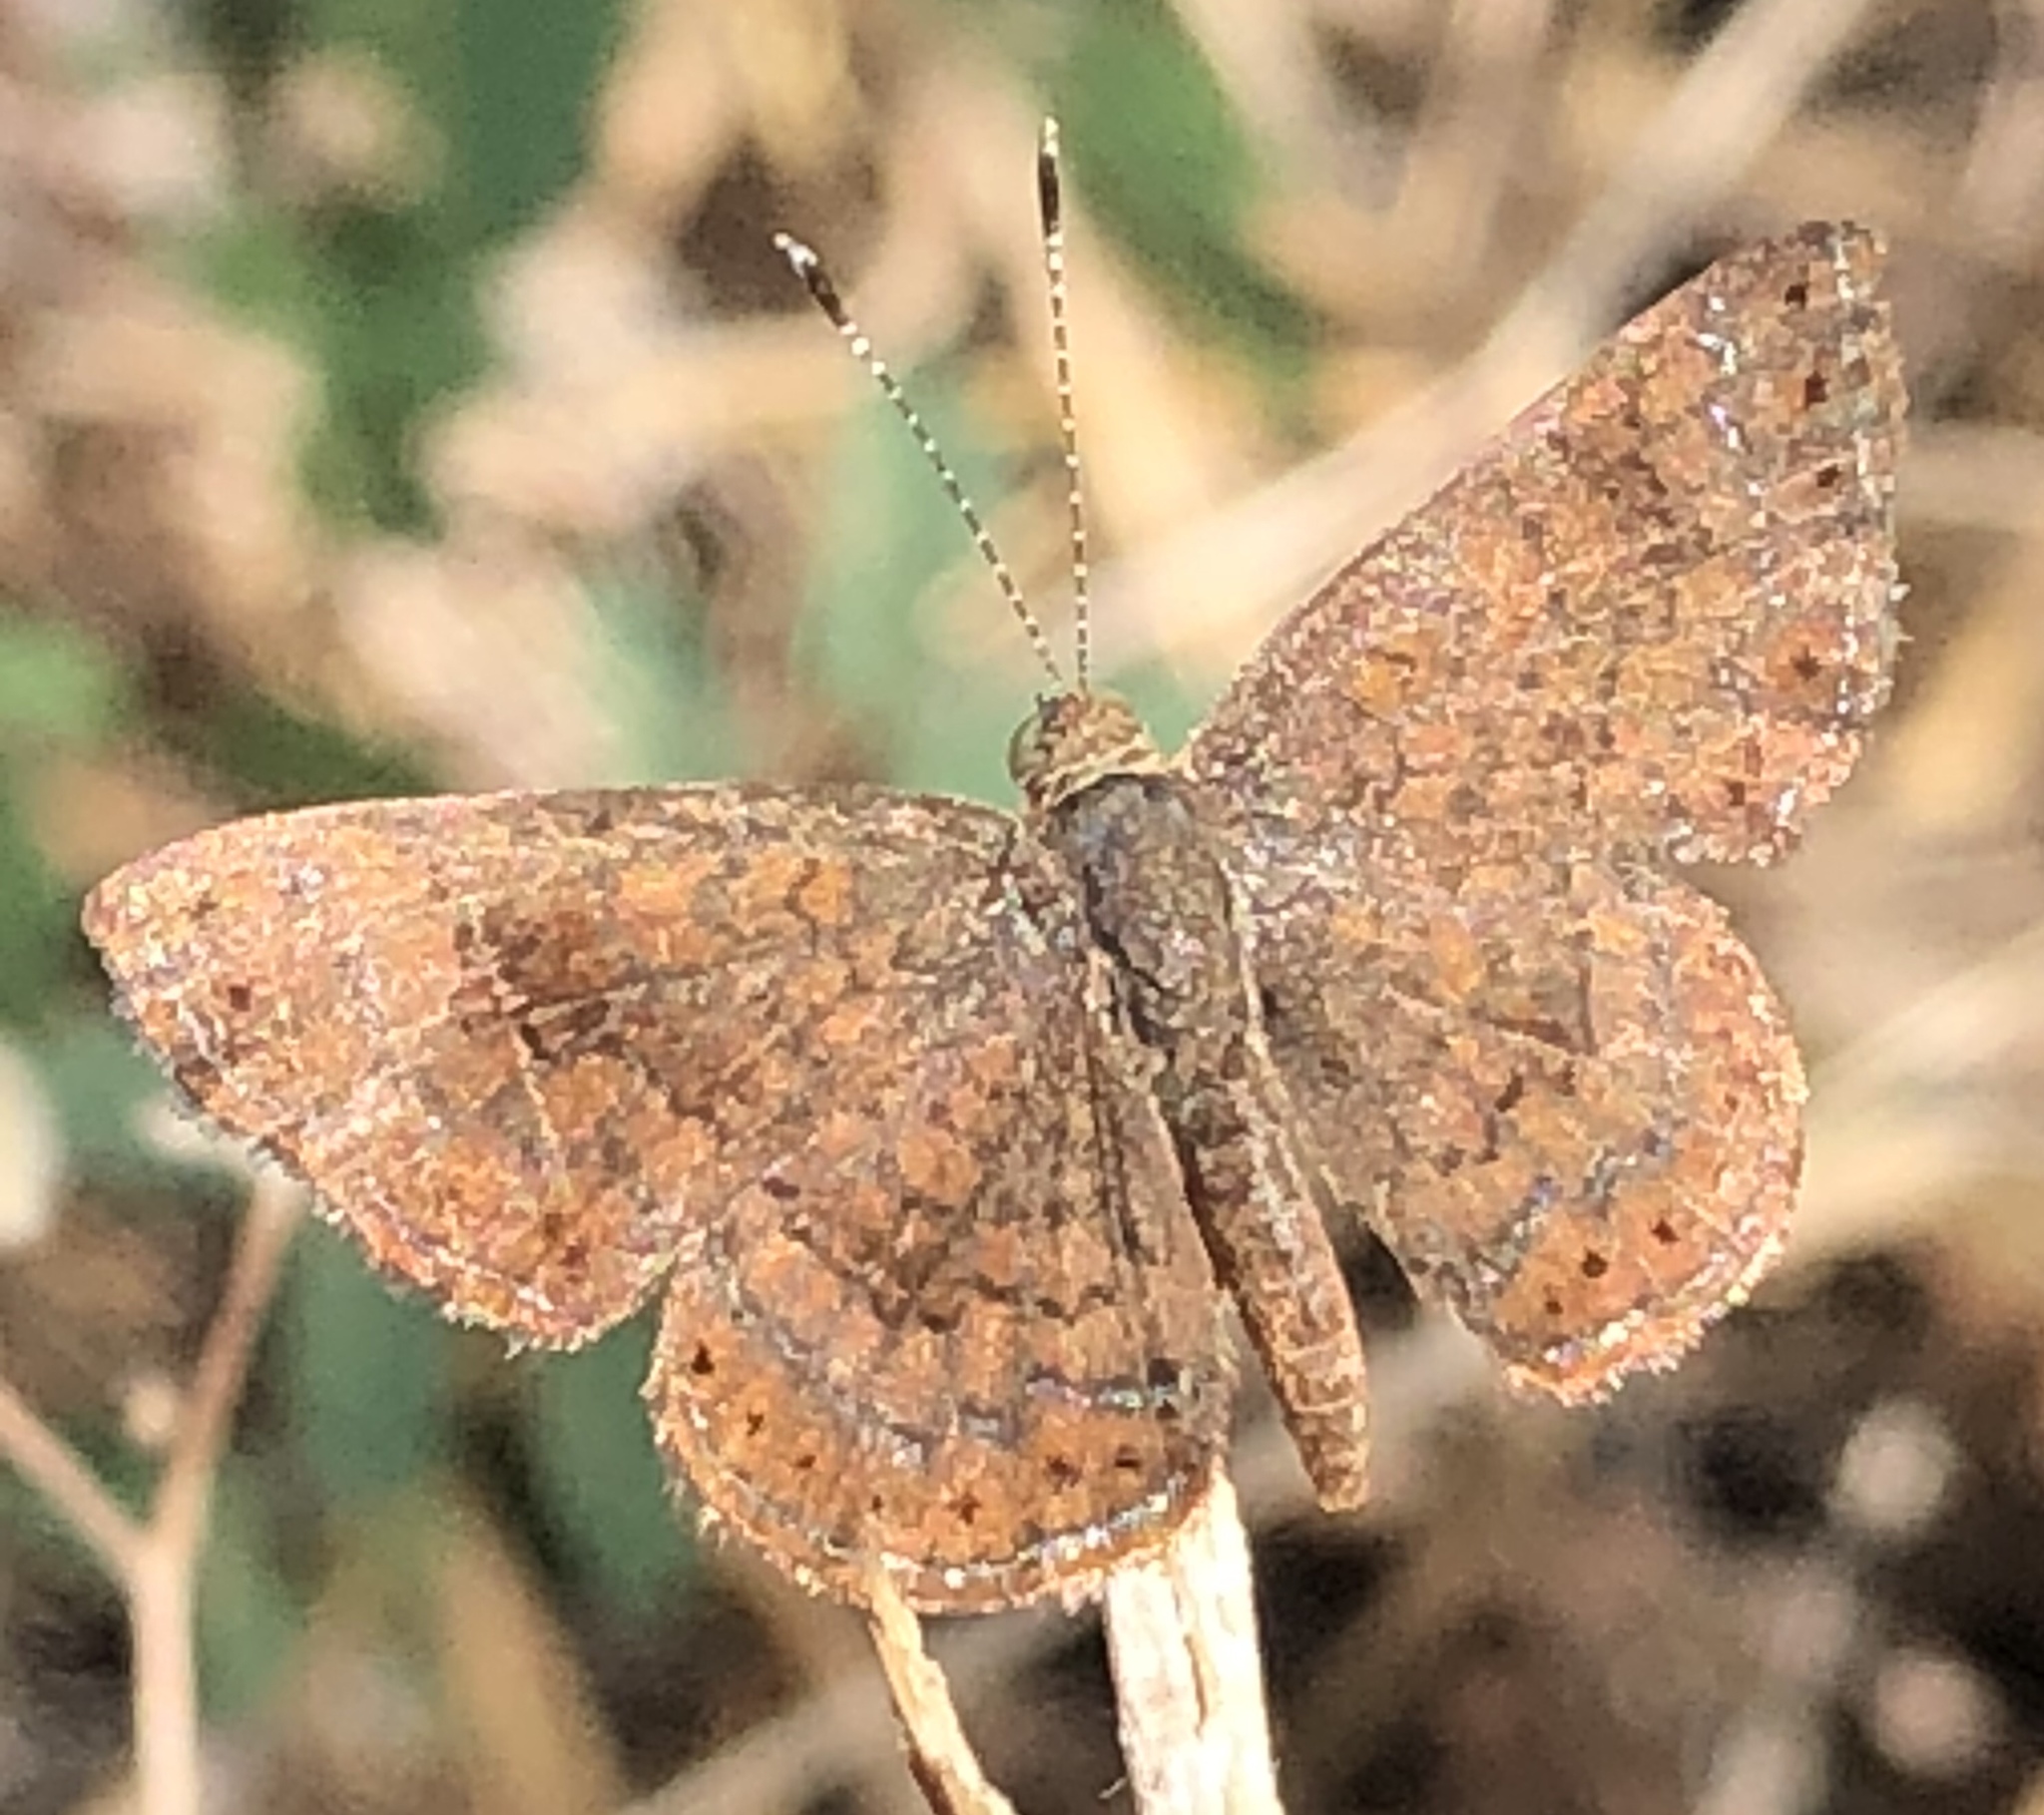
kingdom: Animalia
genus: Calephelis
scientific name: Calephelis nemesis
